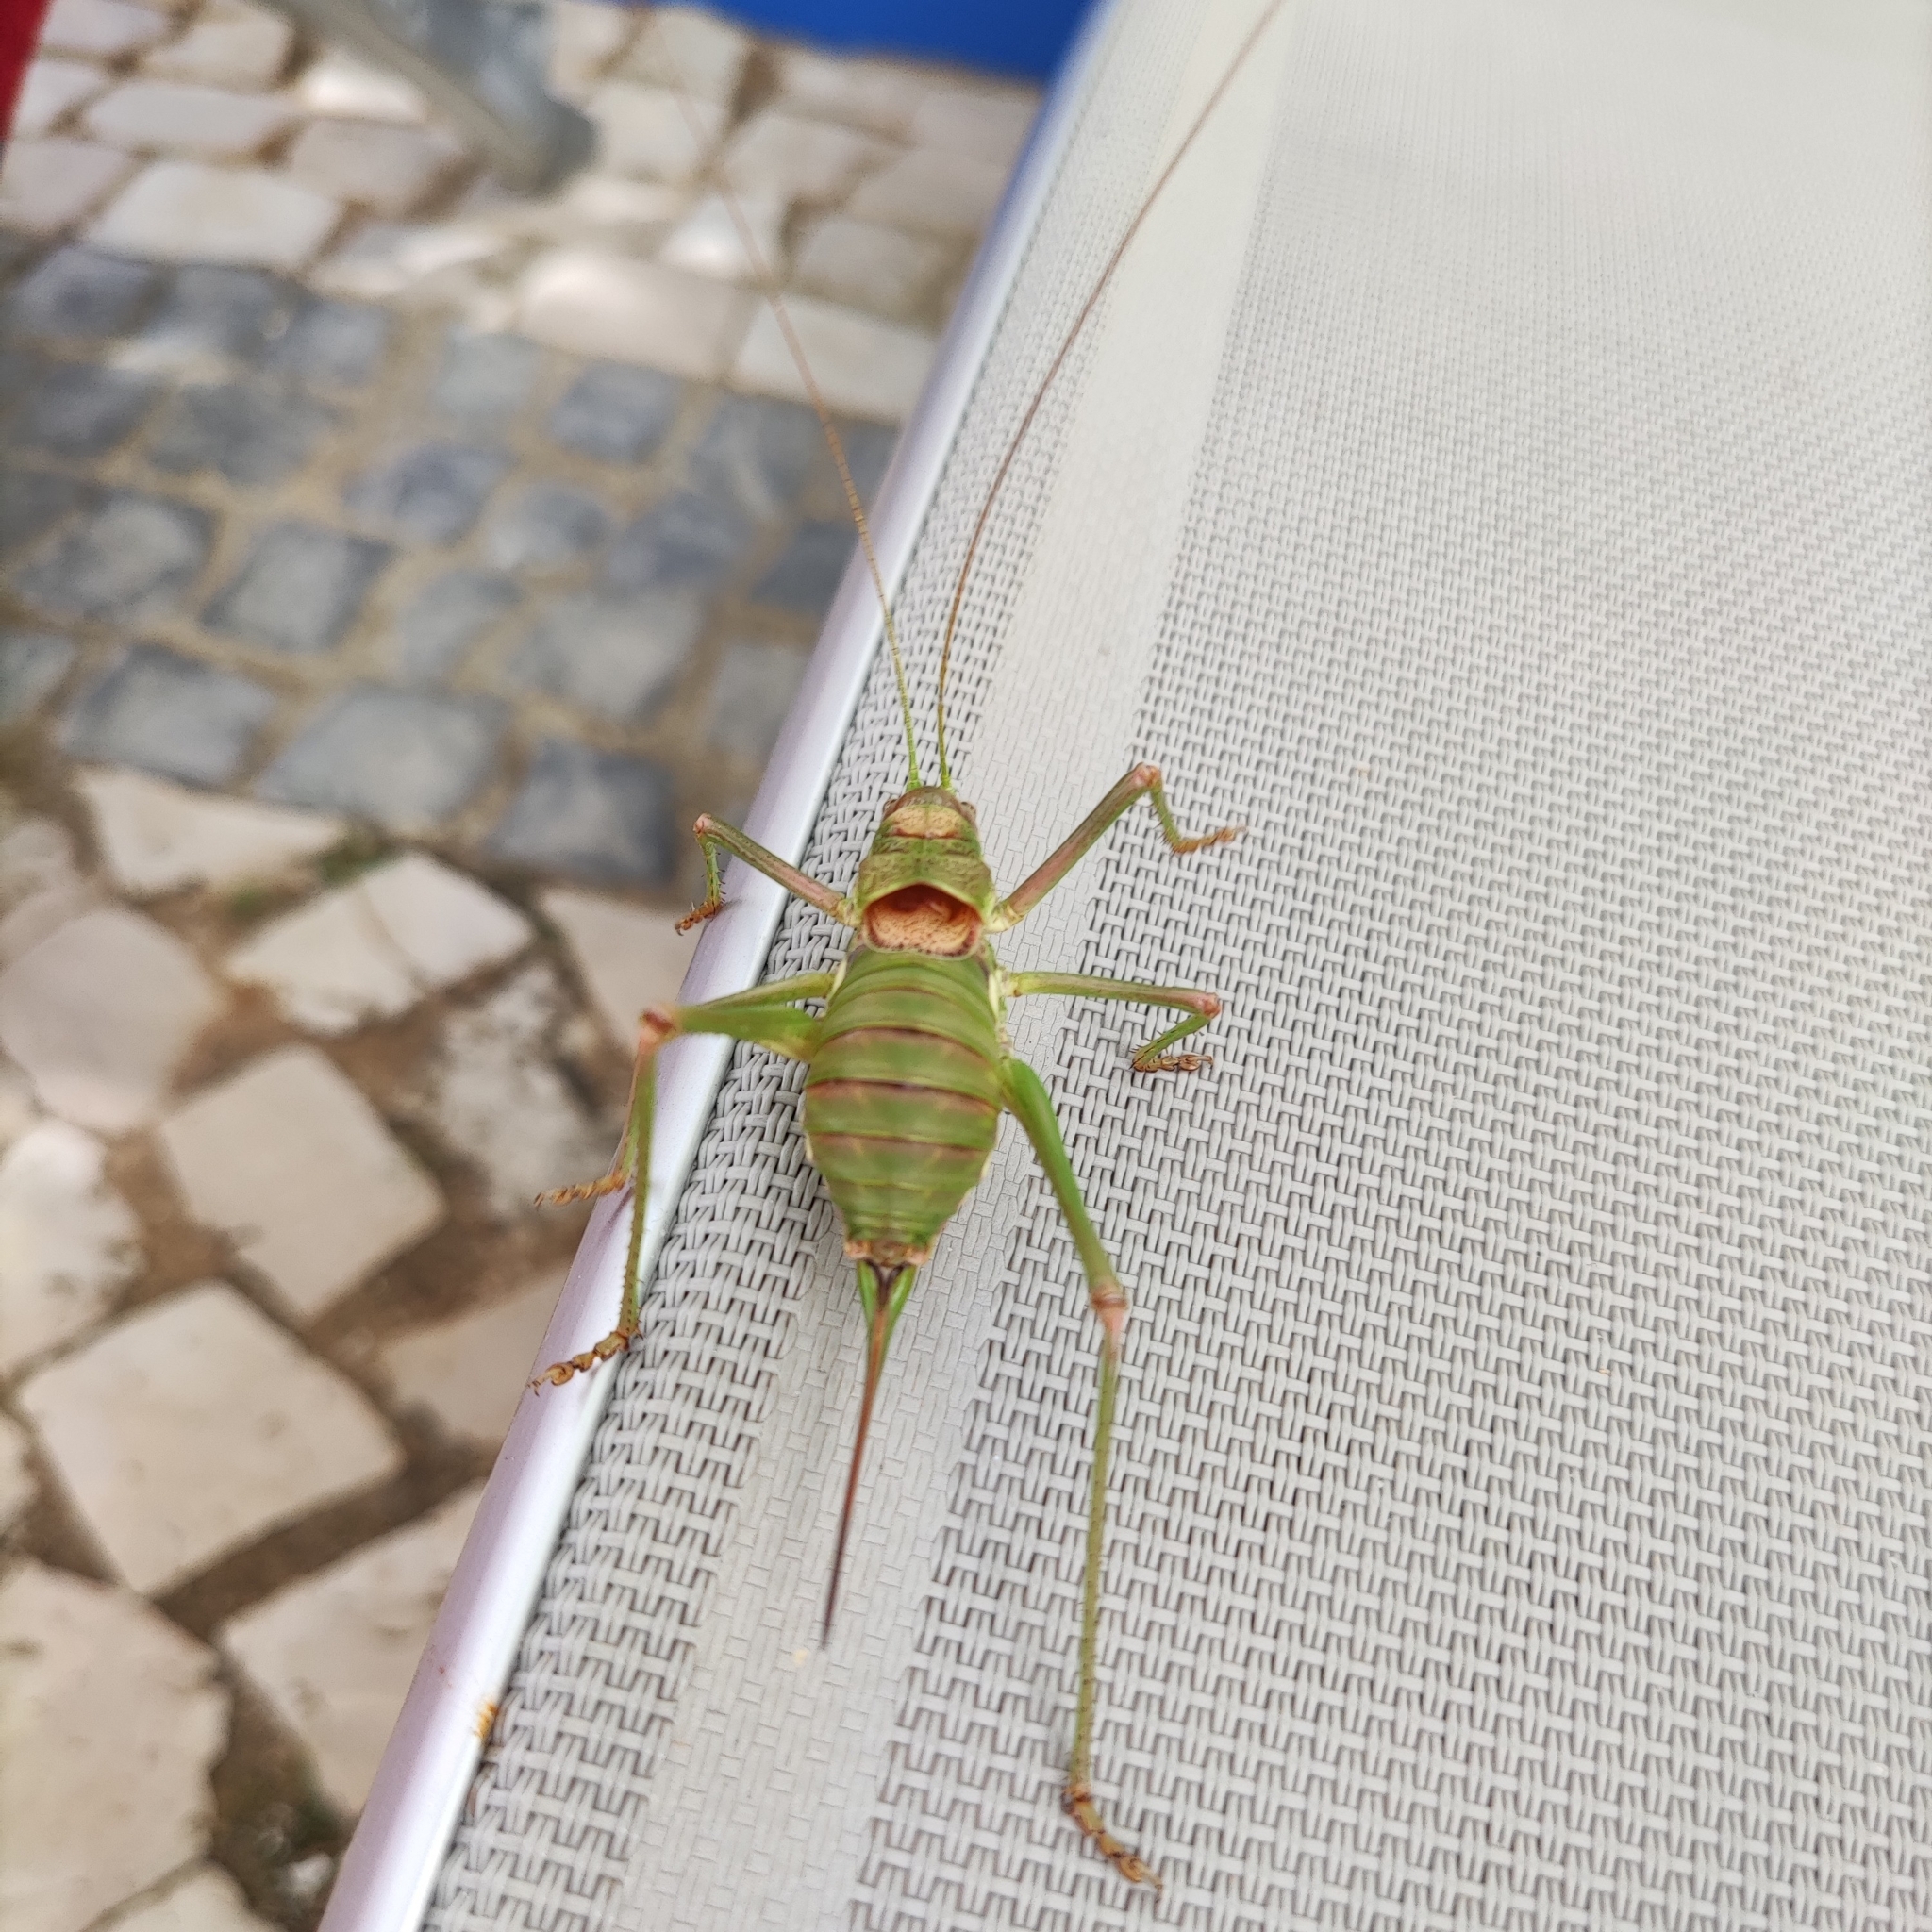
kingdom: Animalia
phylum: Arthropoda
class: Insecta
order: Orthoptera
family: Tettigoniidae
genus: Steropleurus
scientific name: Steropleurus pseudolus
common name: Pseudolus' saddle bush-cricket
